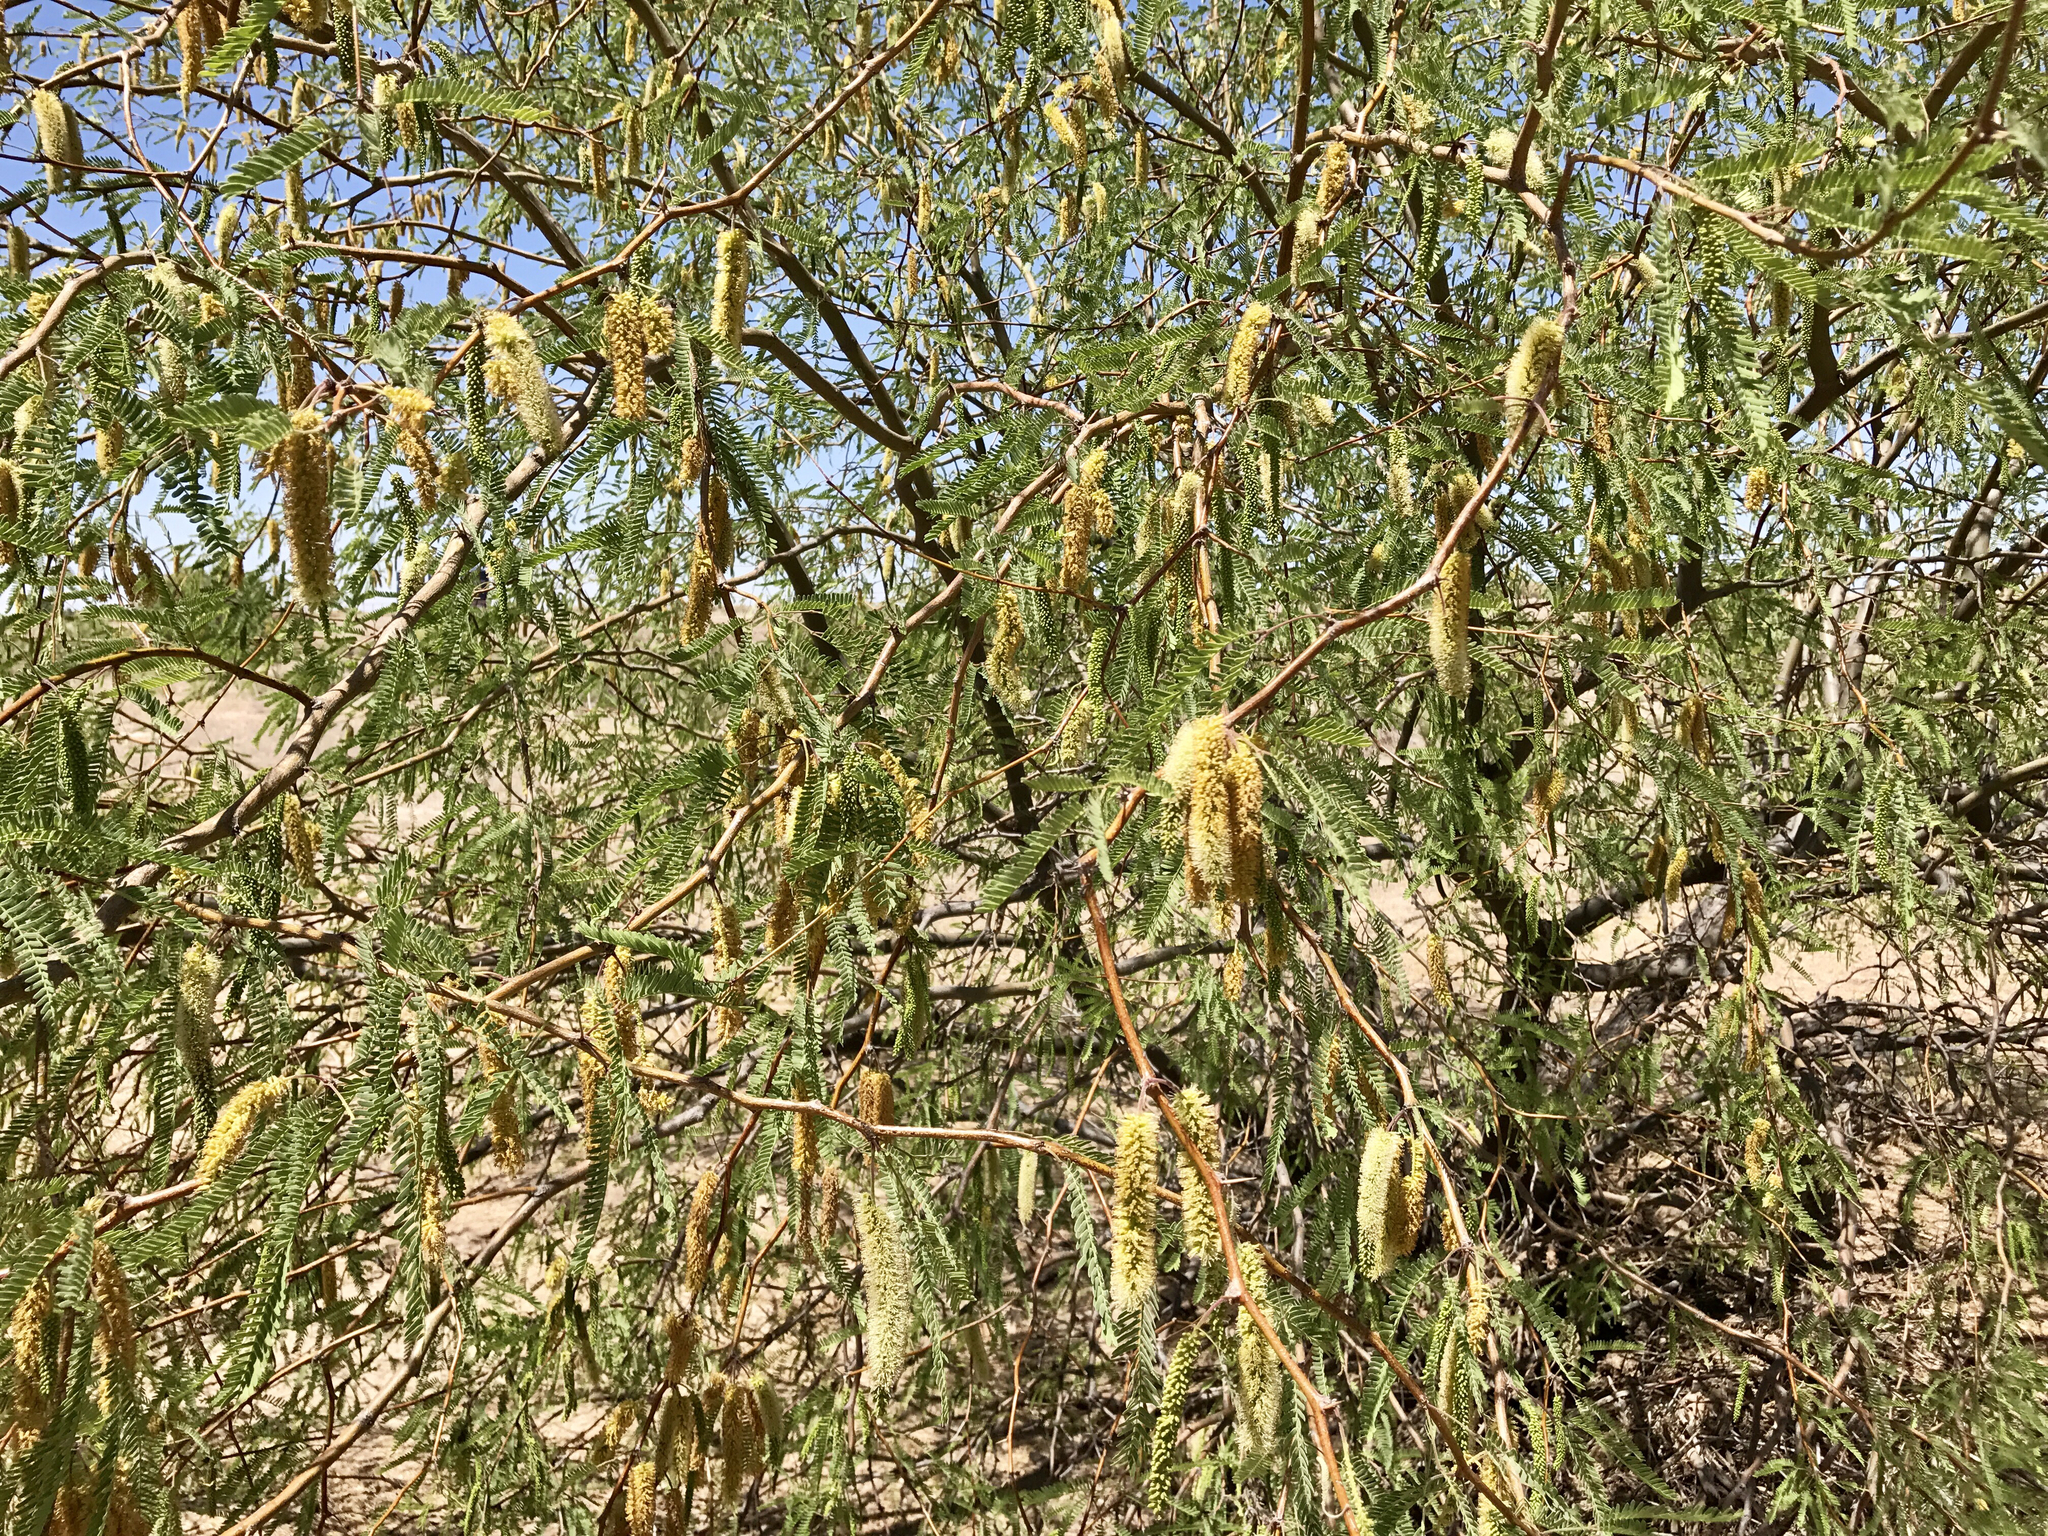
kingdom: Plantae
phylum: Tracheophyta
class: Magnoliopsida
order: Fabales
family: Fabaceae
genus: Prosopis
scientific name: Prosopis velutina
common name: Velvet mesquite
